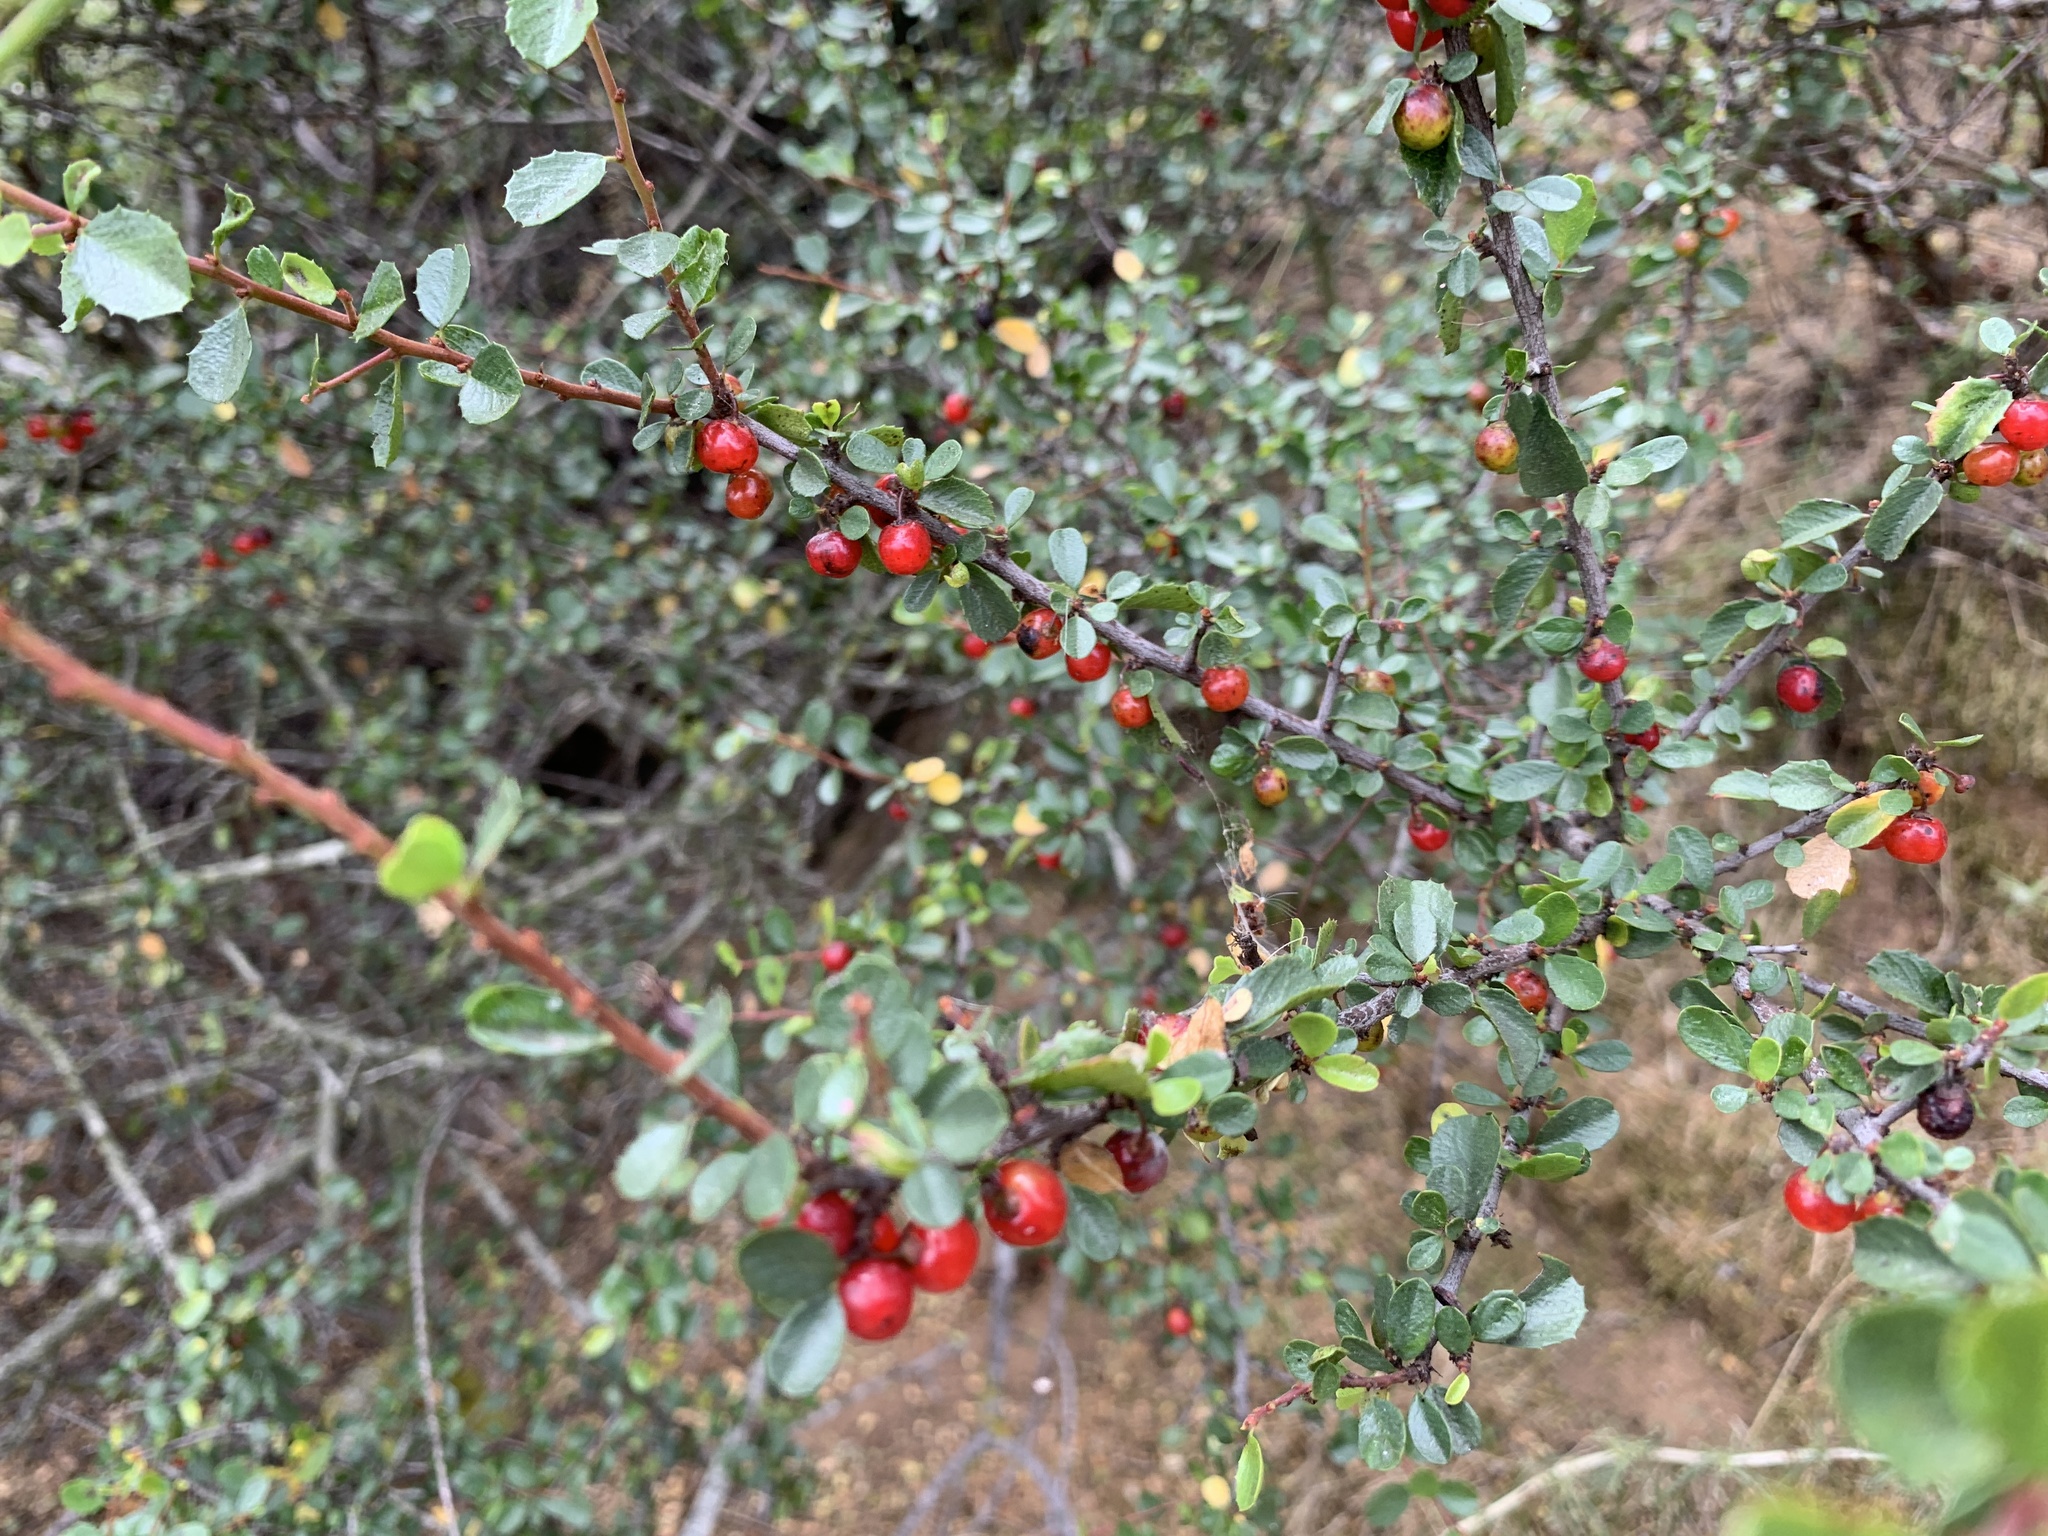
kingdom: Plantae
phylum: Tracheophyta
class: Magnoliopsida
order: Rosales
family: Rhamnaceae
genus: Endotropis
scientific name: Endotropis crocea
